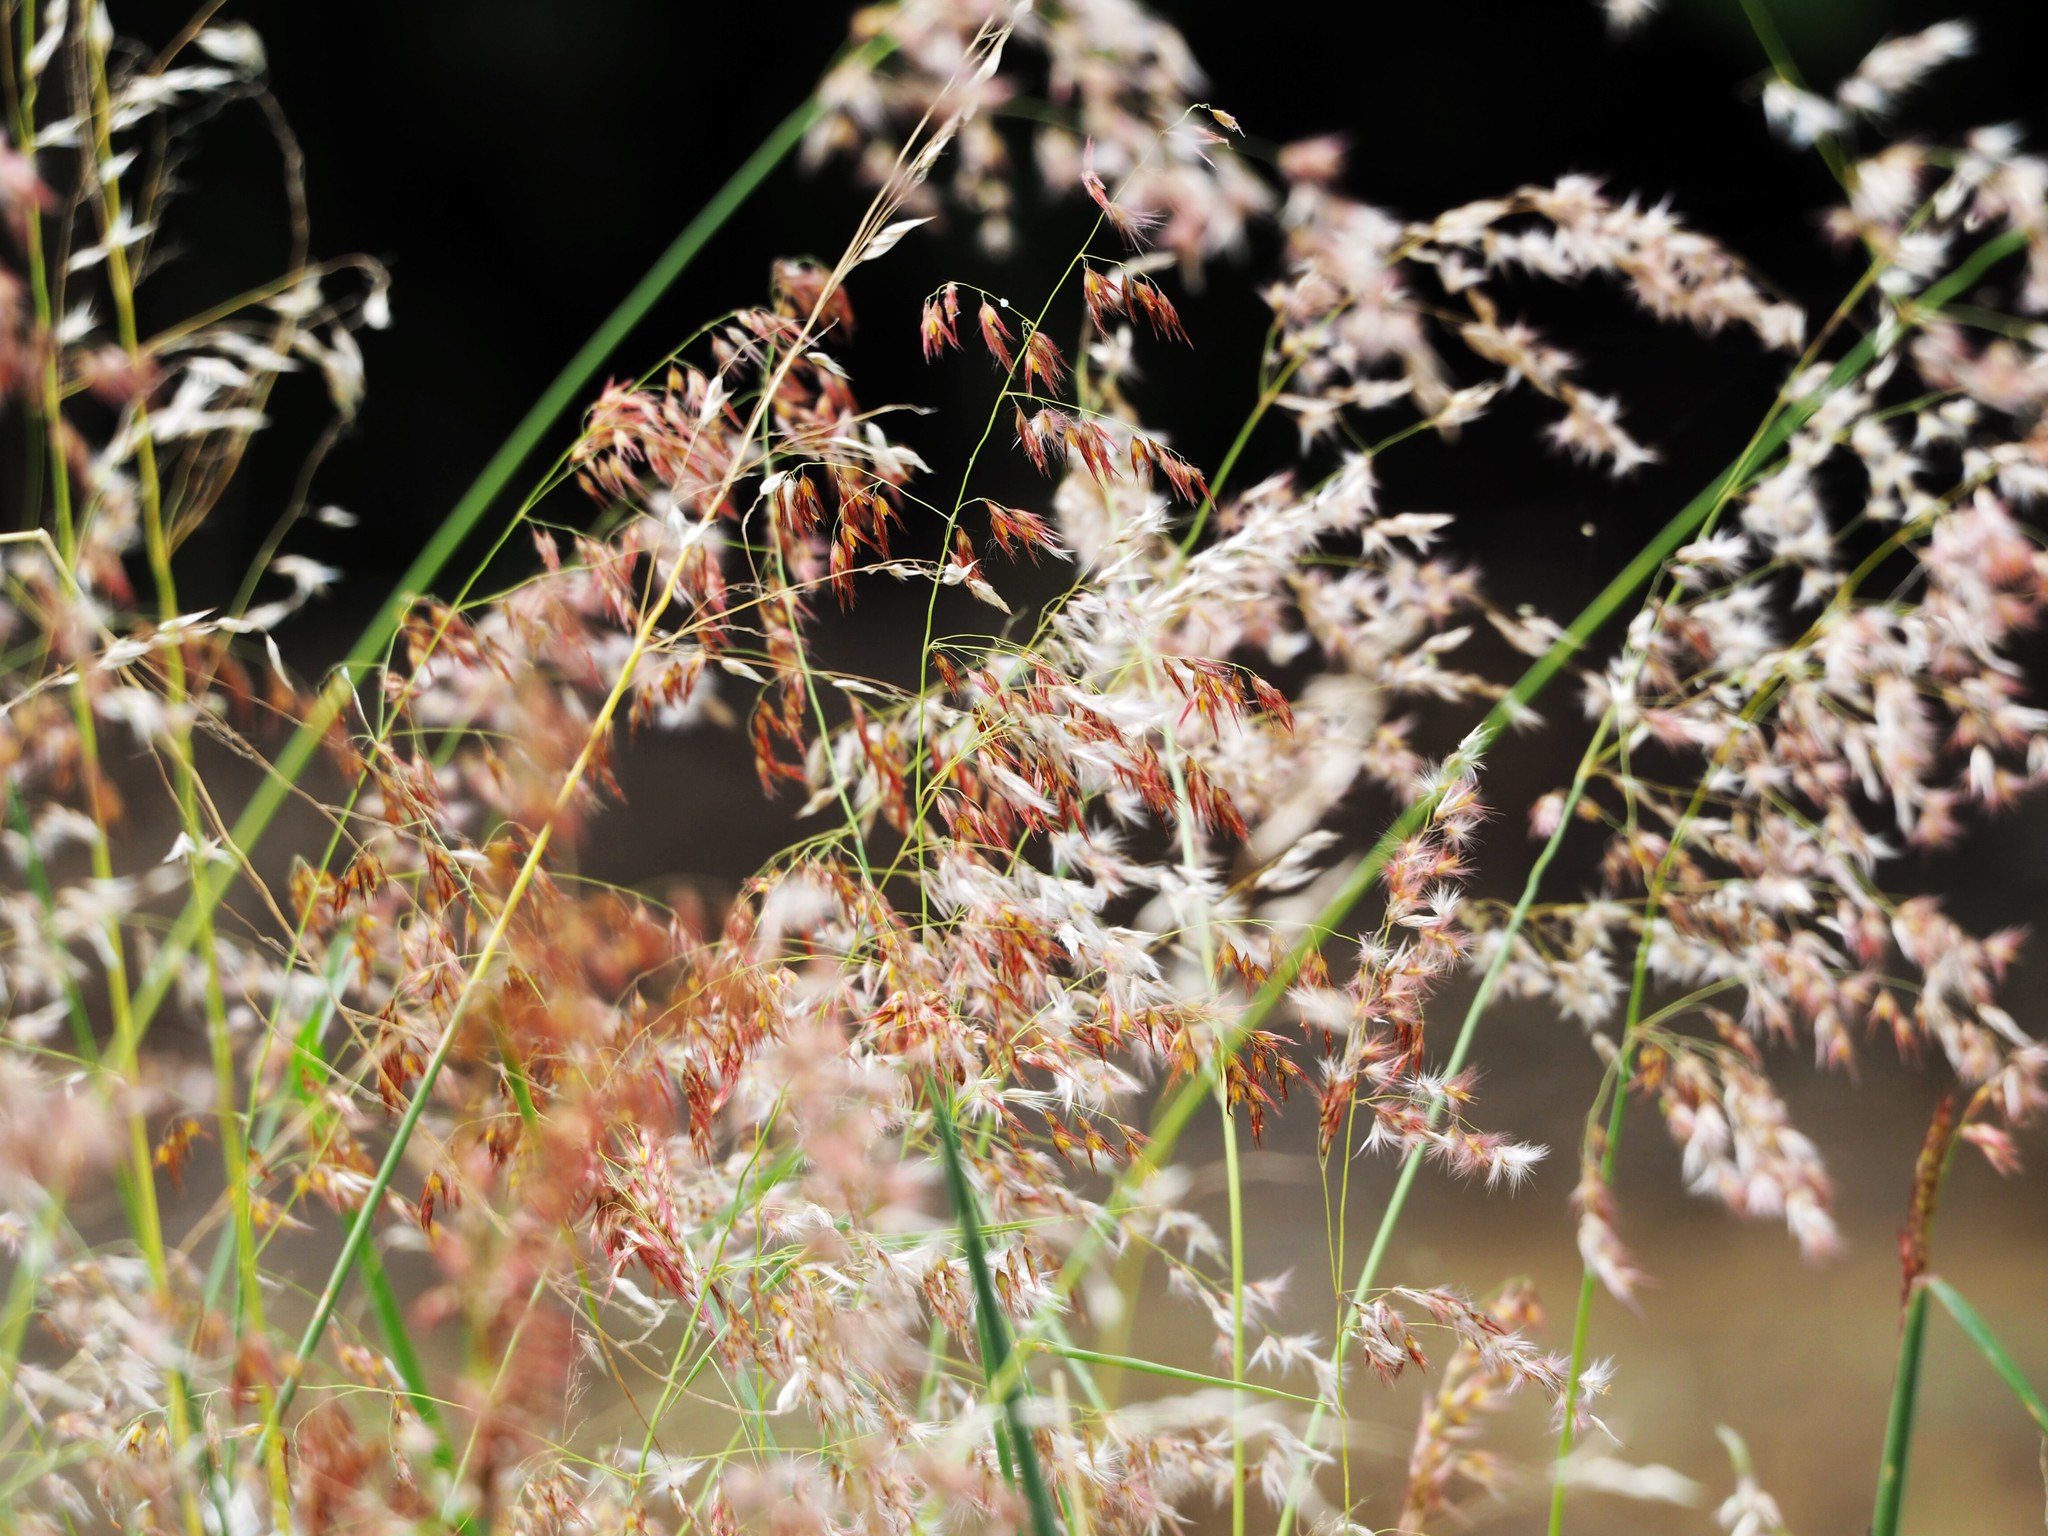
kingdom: Plantae
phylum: Tracheophyta
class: Liliopsida
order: Poales
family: Poaceae
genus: Melinis
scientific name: Melinis repens
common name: Rose natal grass
